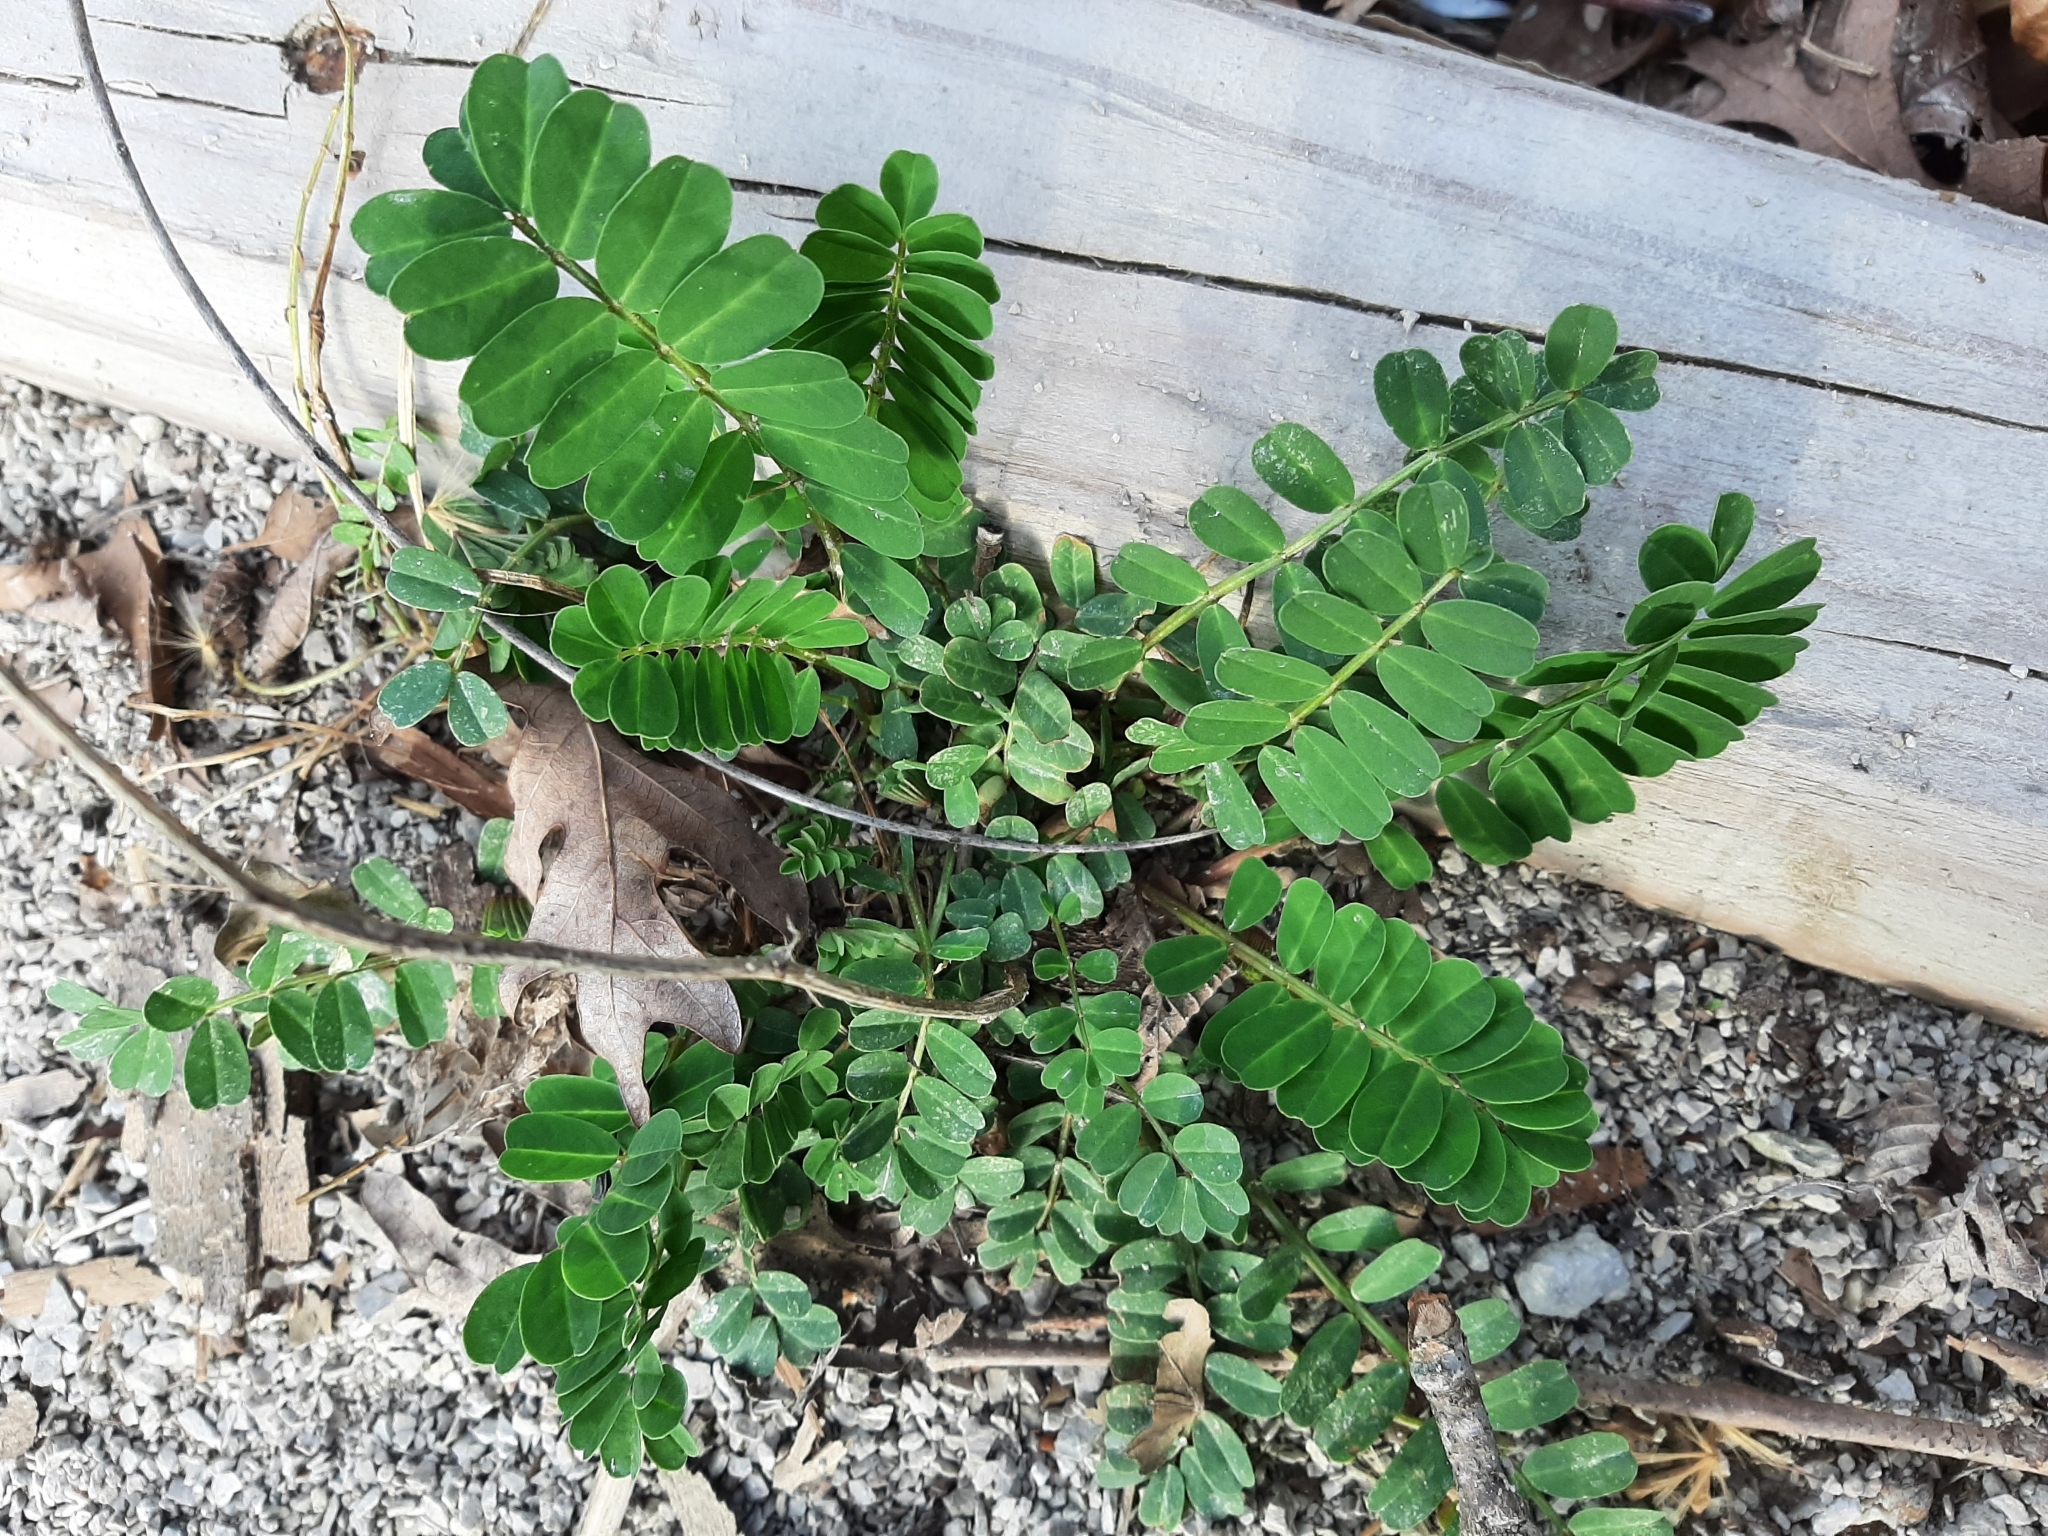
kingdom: Plantae
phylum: Tracheophyta
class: Magnoliopsida
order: Fabales
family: Fabaceae
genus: Coronilla
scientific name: Coronilla varia
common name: Crownvetch
